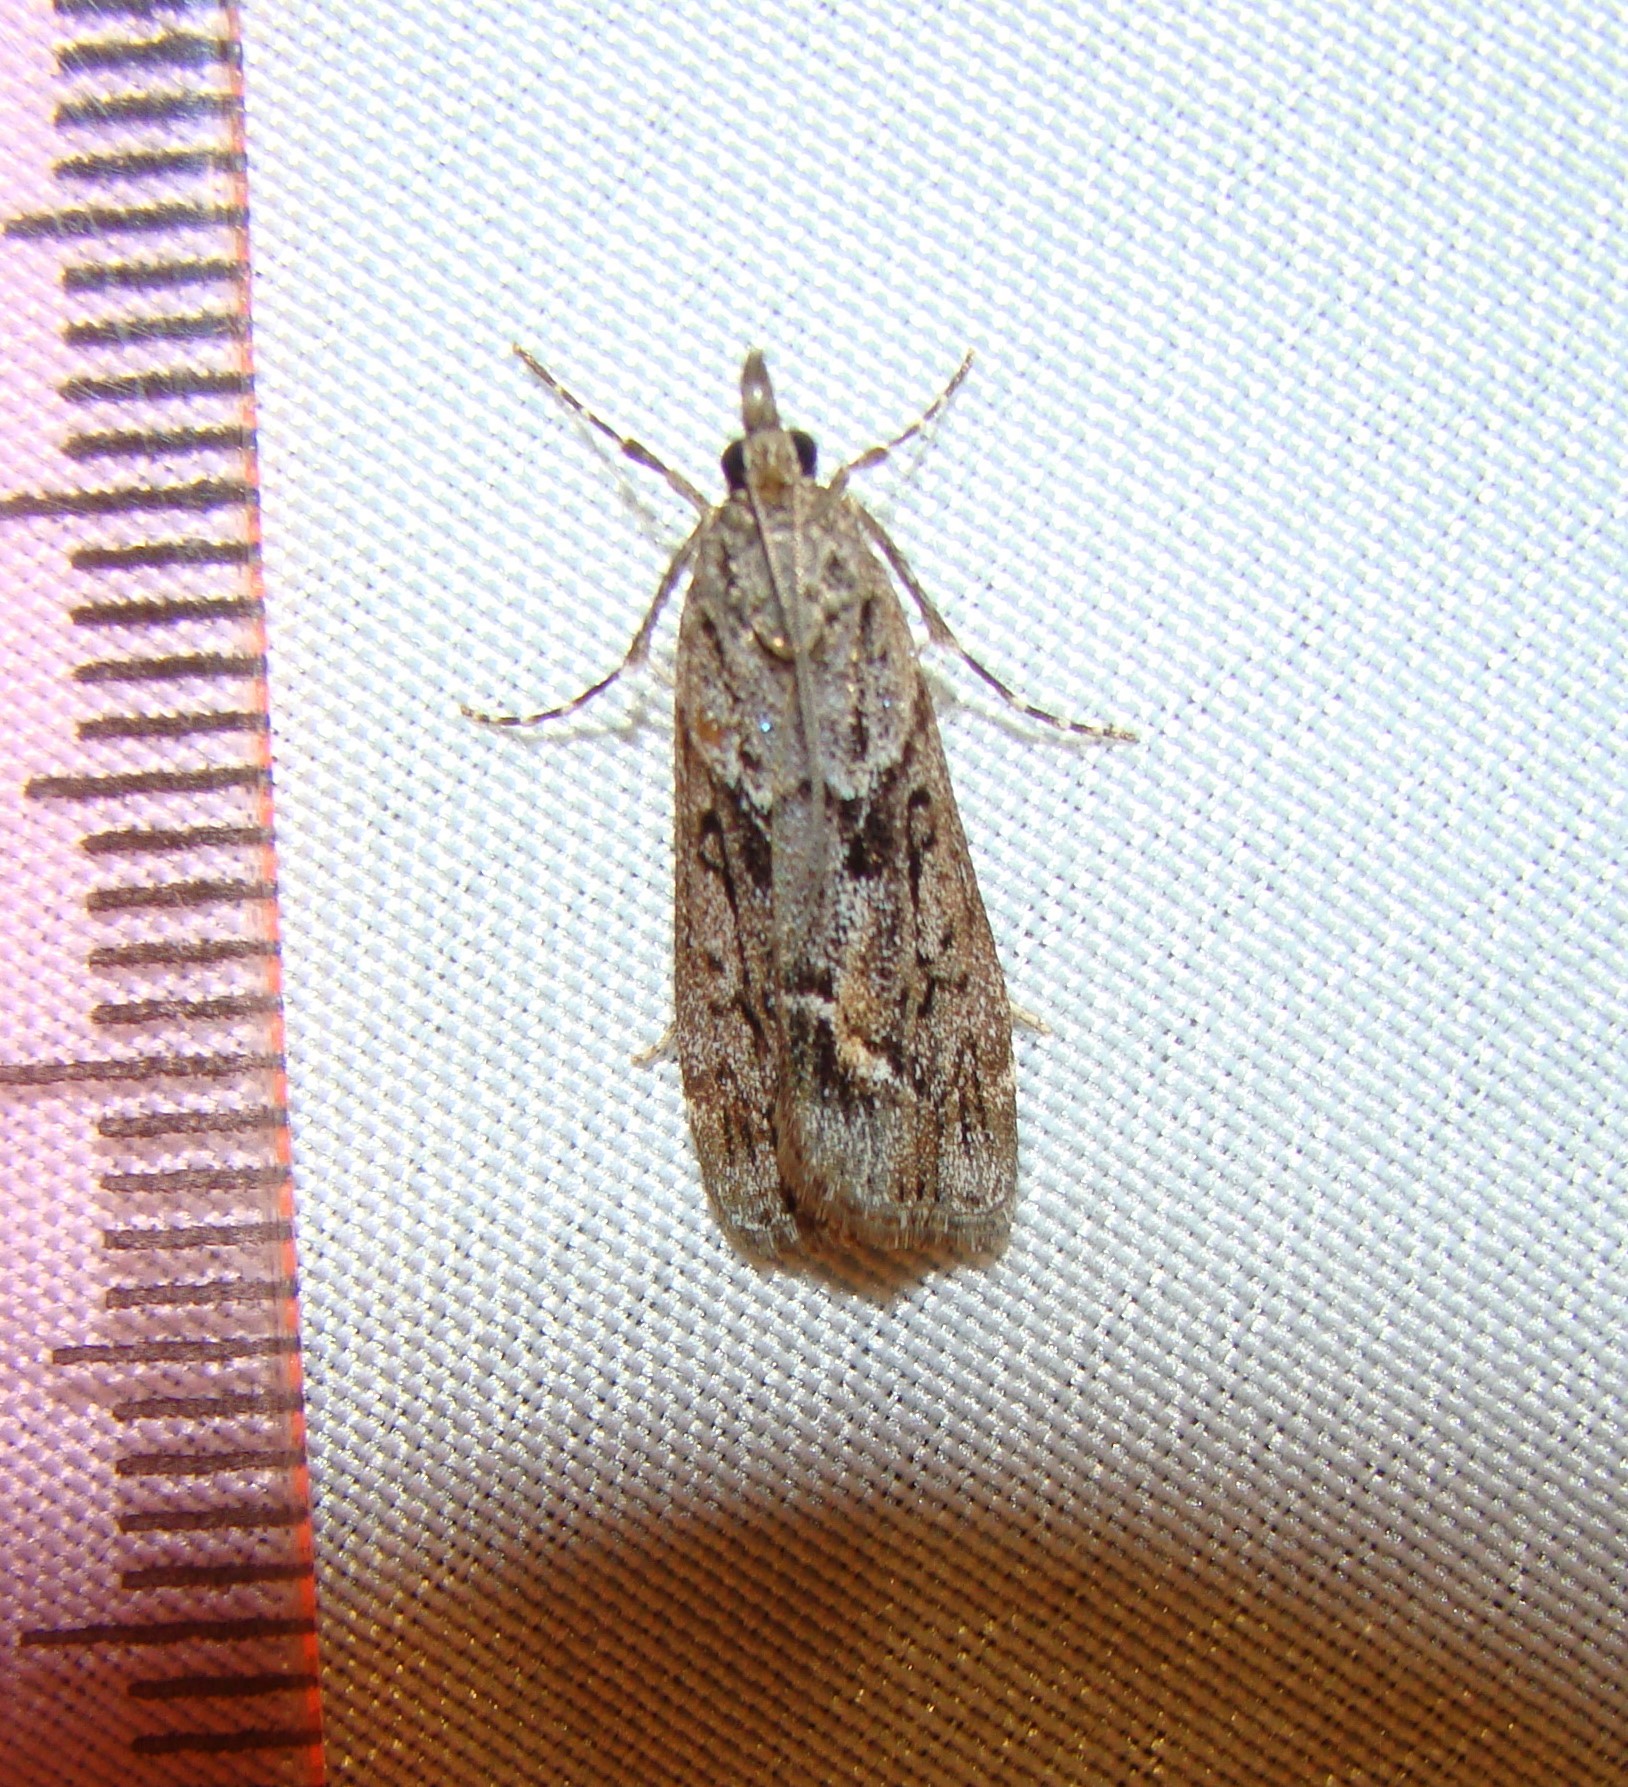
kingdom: Animalia
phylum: Arthropoda
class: Insecta
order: Lepidoptera
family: Crambidae
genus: Eudonia
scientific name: Eudonia submarginalis
